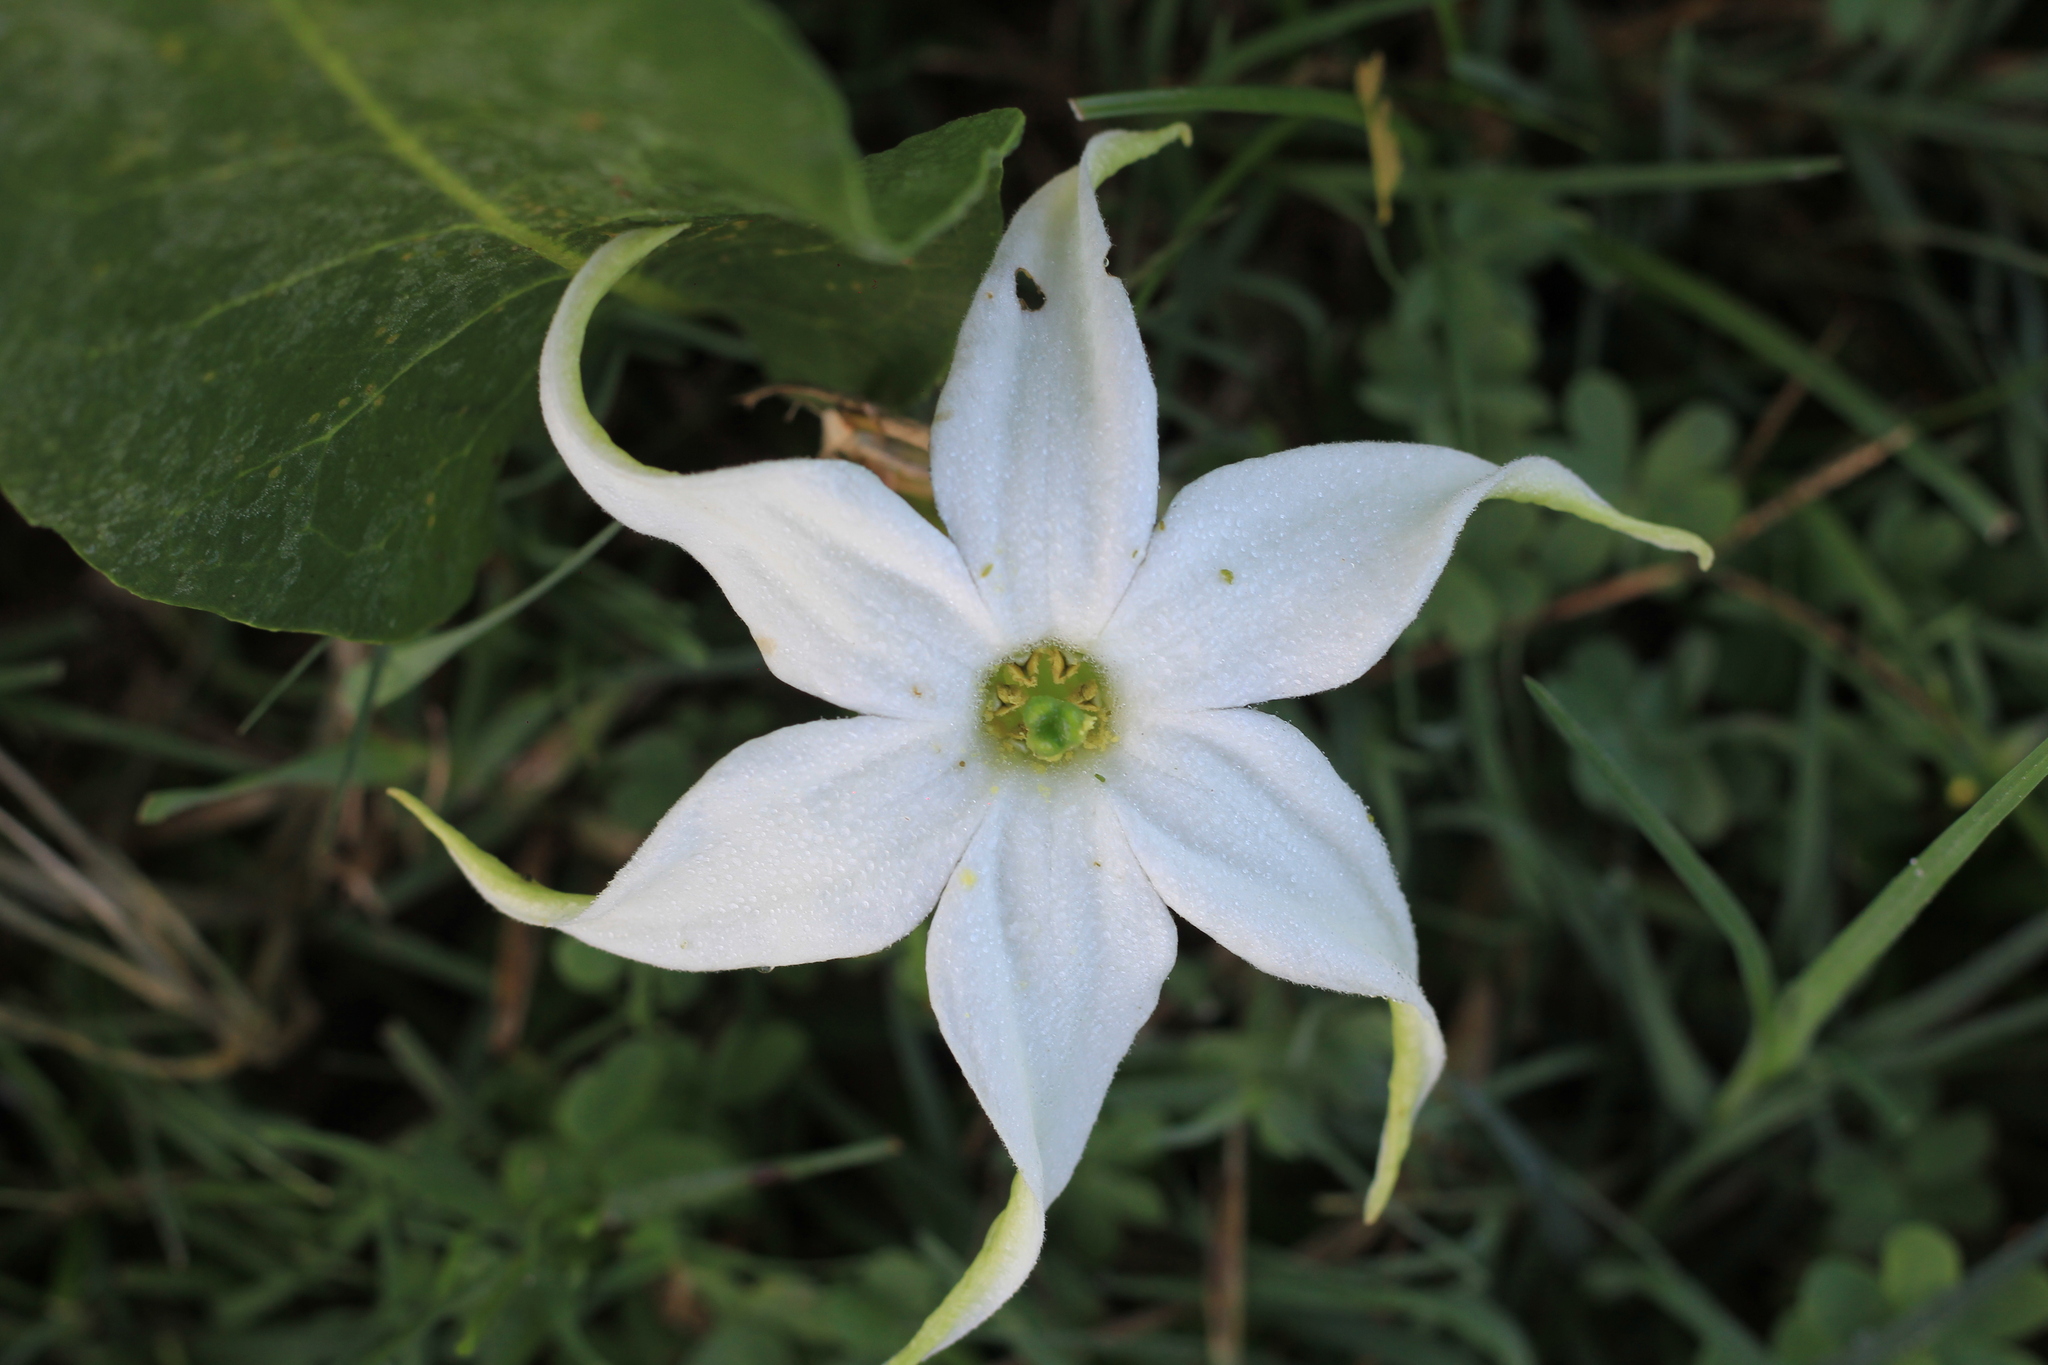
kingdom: Plantae
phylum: Tracheophyta
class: Magnoliopsida
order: Solanales
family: Solanaceae
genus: Jaborosa
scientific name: Jaborosa integrifolia
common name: Springblossom
